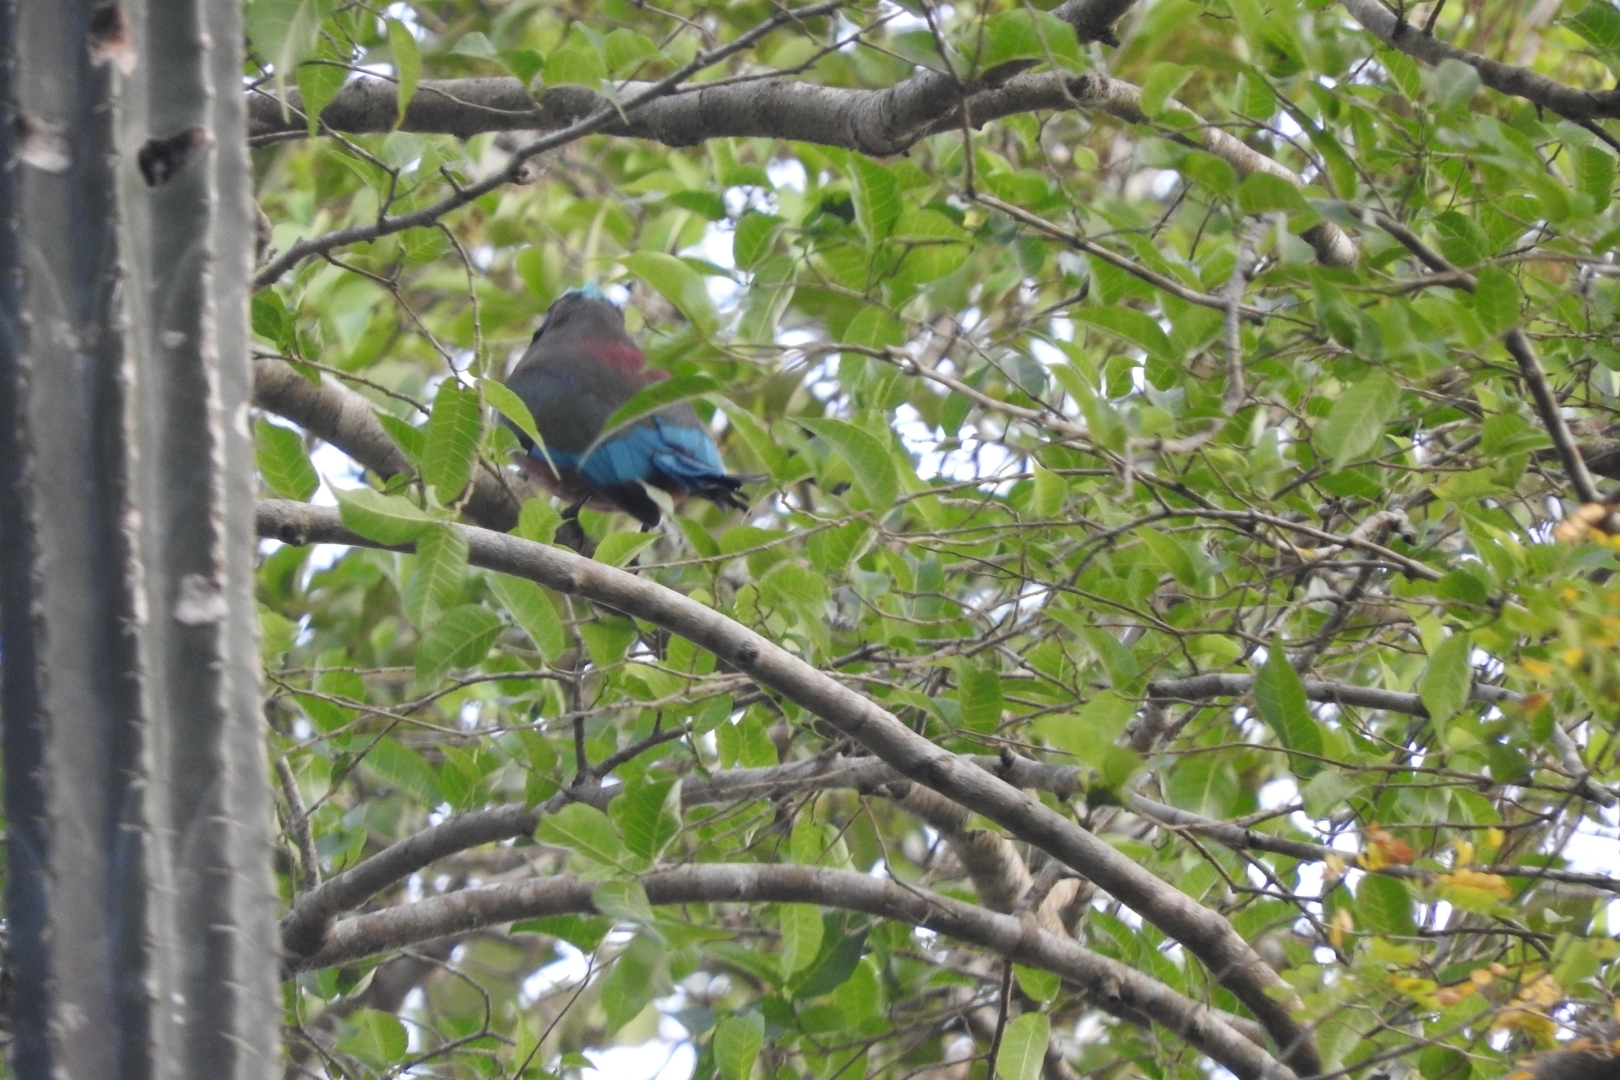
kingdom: Animalia
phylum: Chordata
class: Aves
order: Coraciiformes
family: Momotidae
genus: Eumomota
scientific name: Eumomota superciliosa
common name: Turquoise-browed motmot
